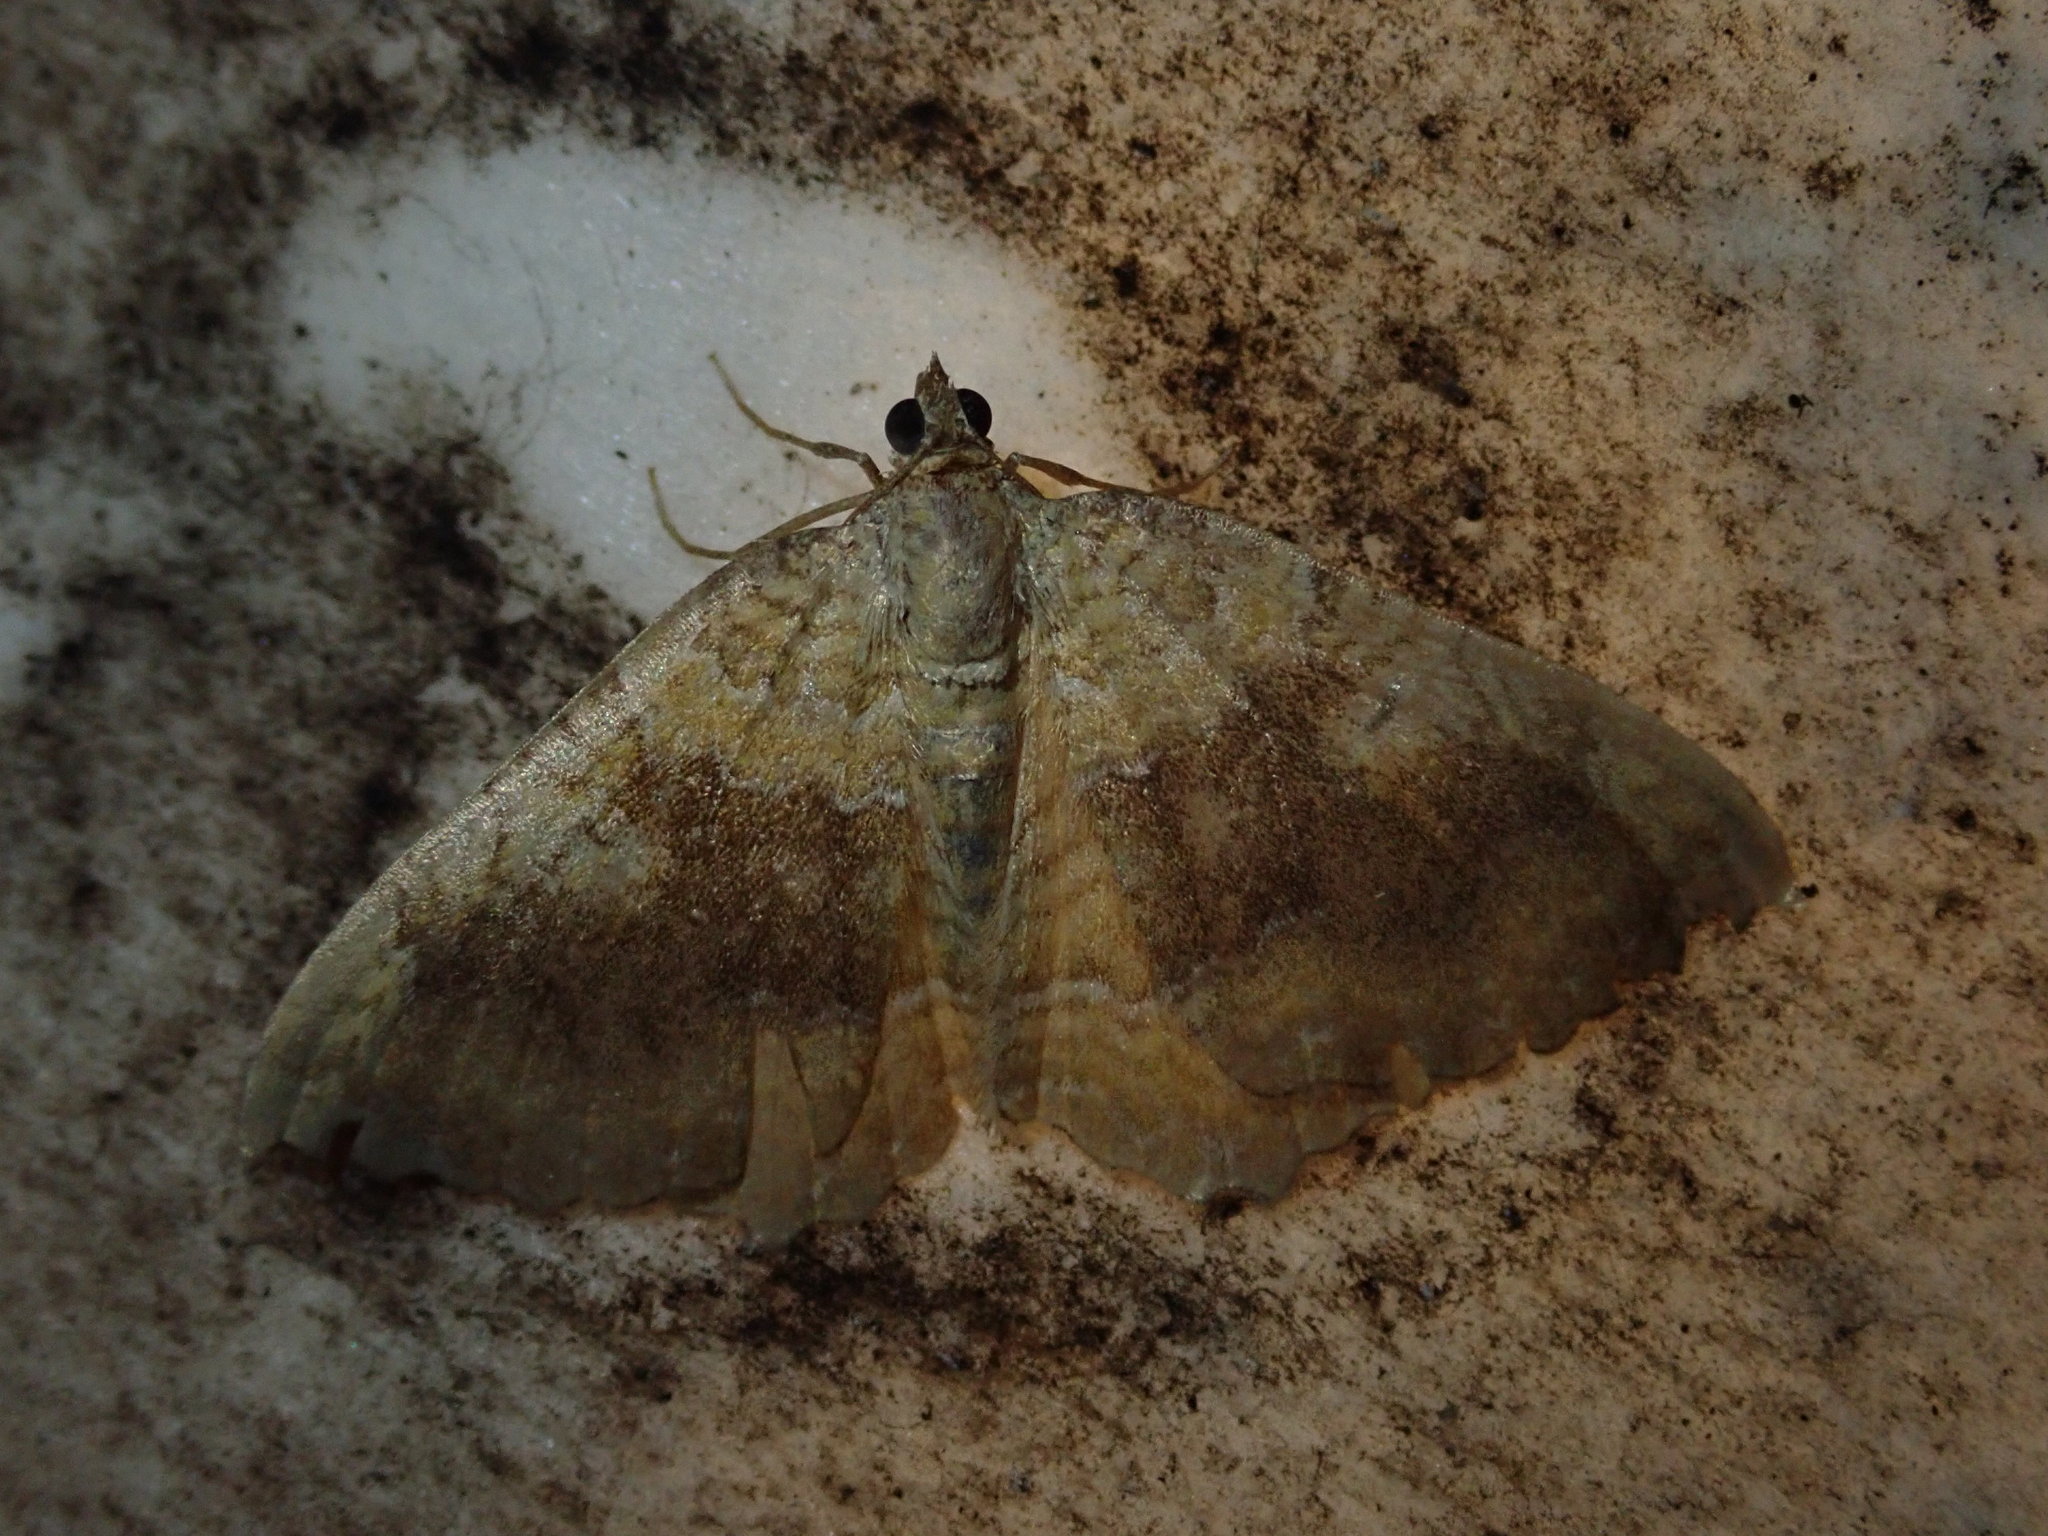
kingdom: Animalia
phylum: Arthropoda
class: Insecta
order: Lepidoptera
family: Geometridae
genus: Camptogramma
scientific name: Camptogramma bilineata
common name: Yellow shell
